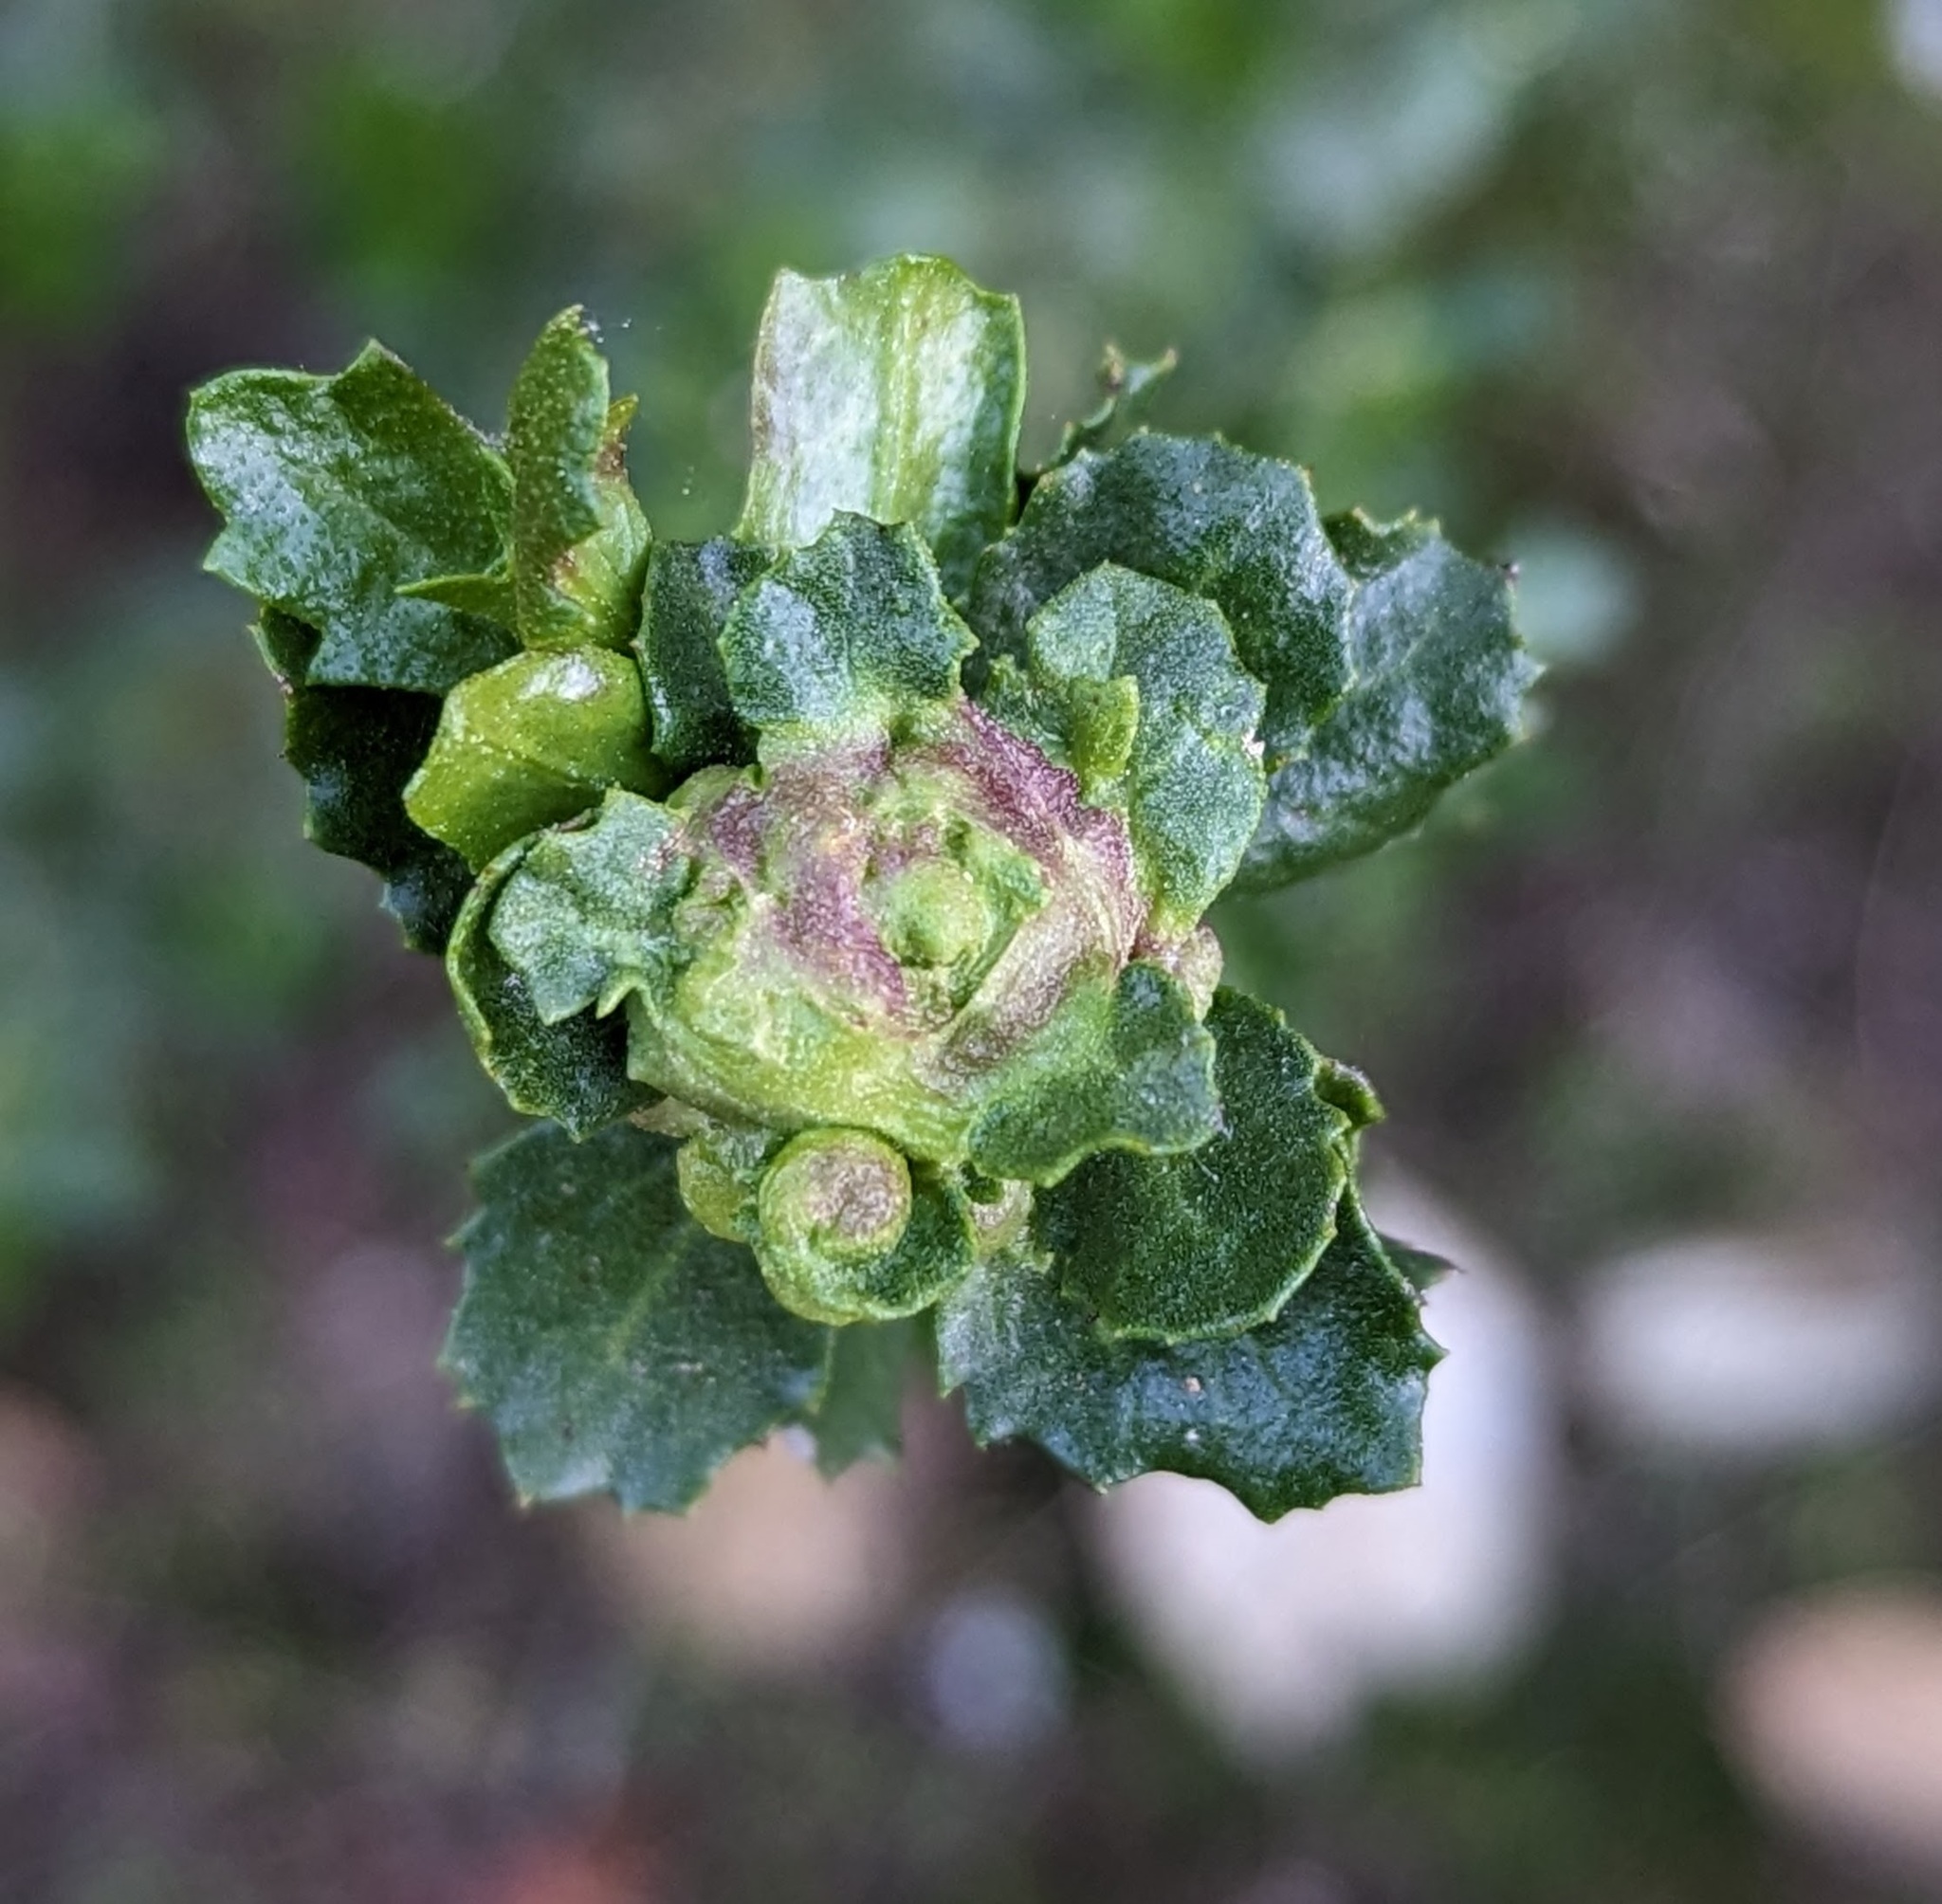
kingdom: Animalia
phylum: Arthropoda
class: Insecta
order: Diptera
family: Cecidomyiidae
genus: Rhopalomyia
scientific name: Rhopalomyia californica
